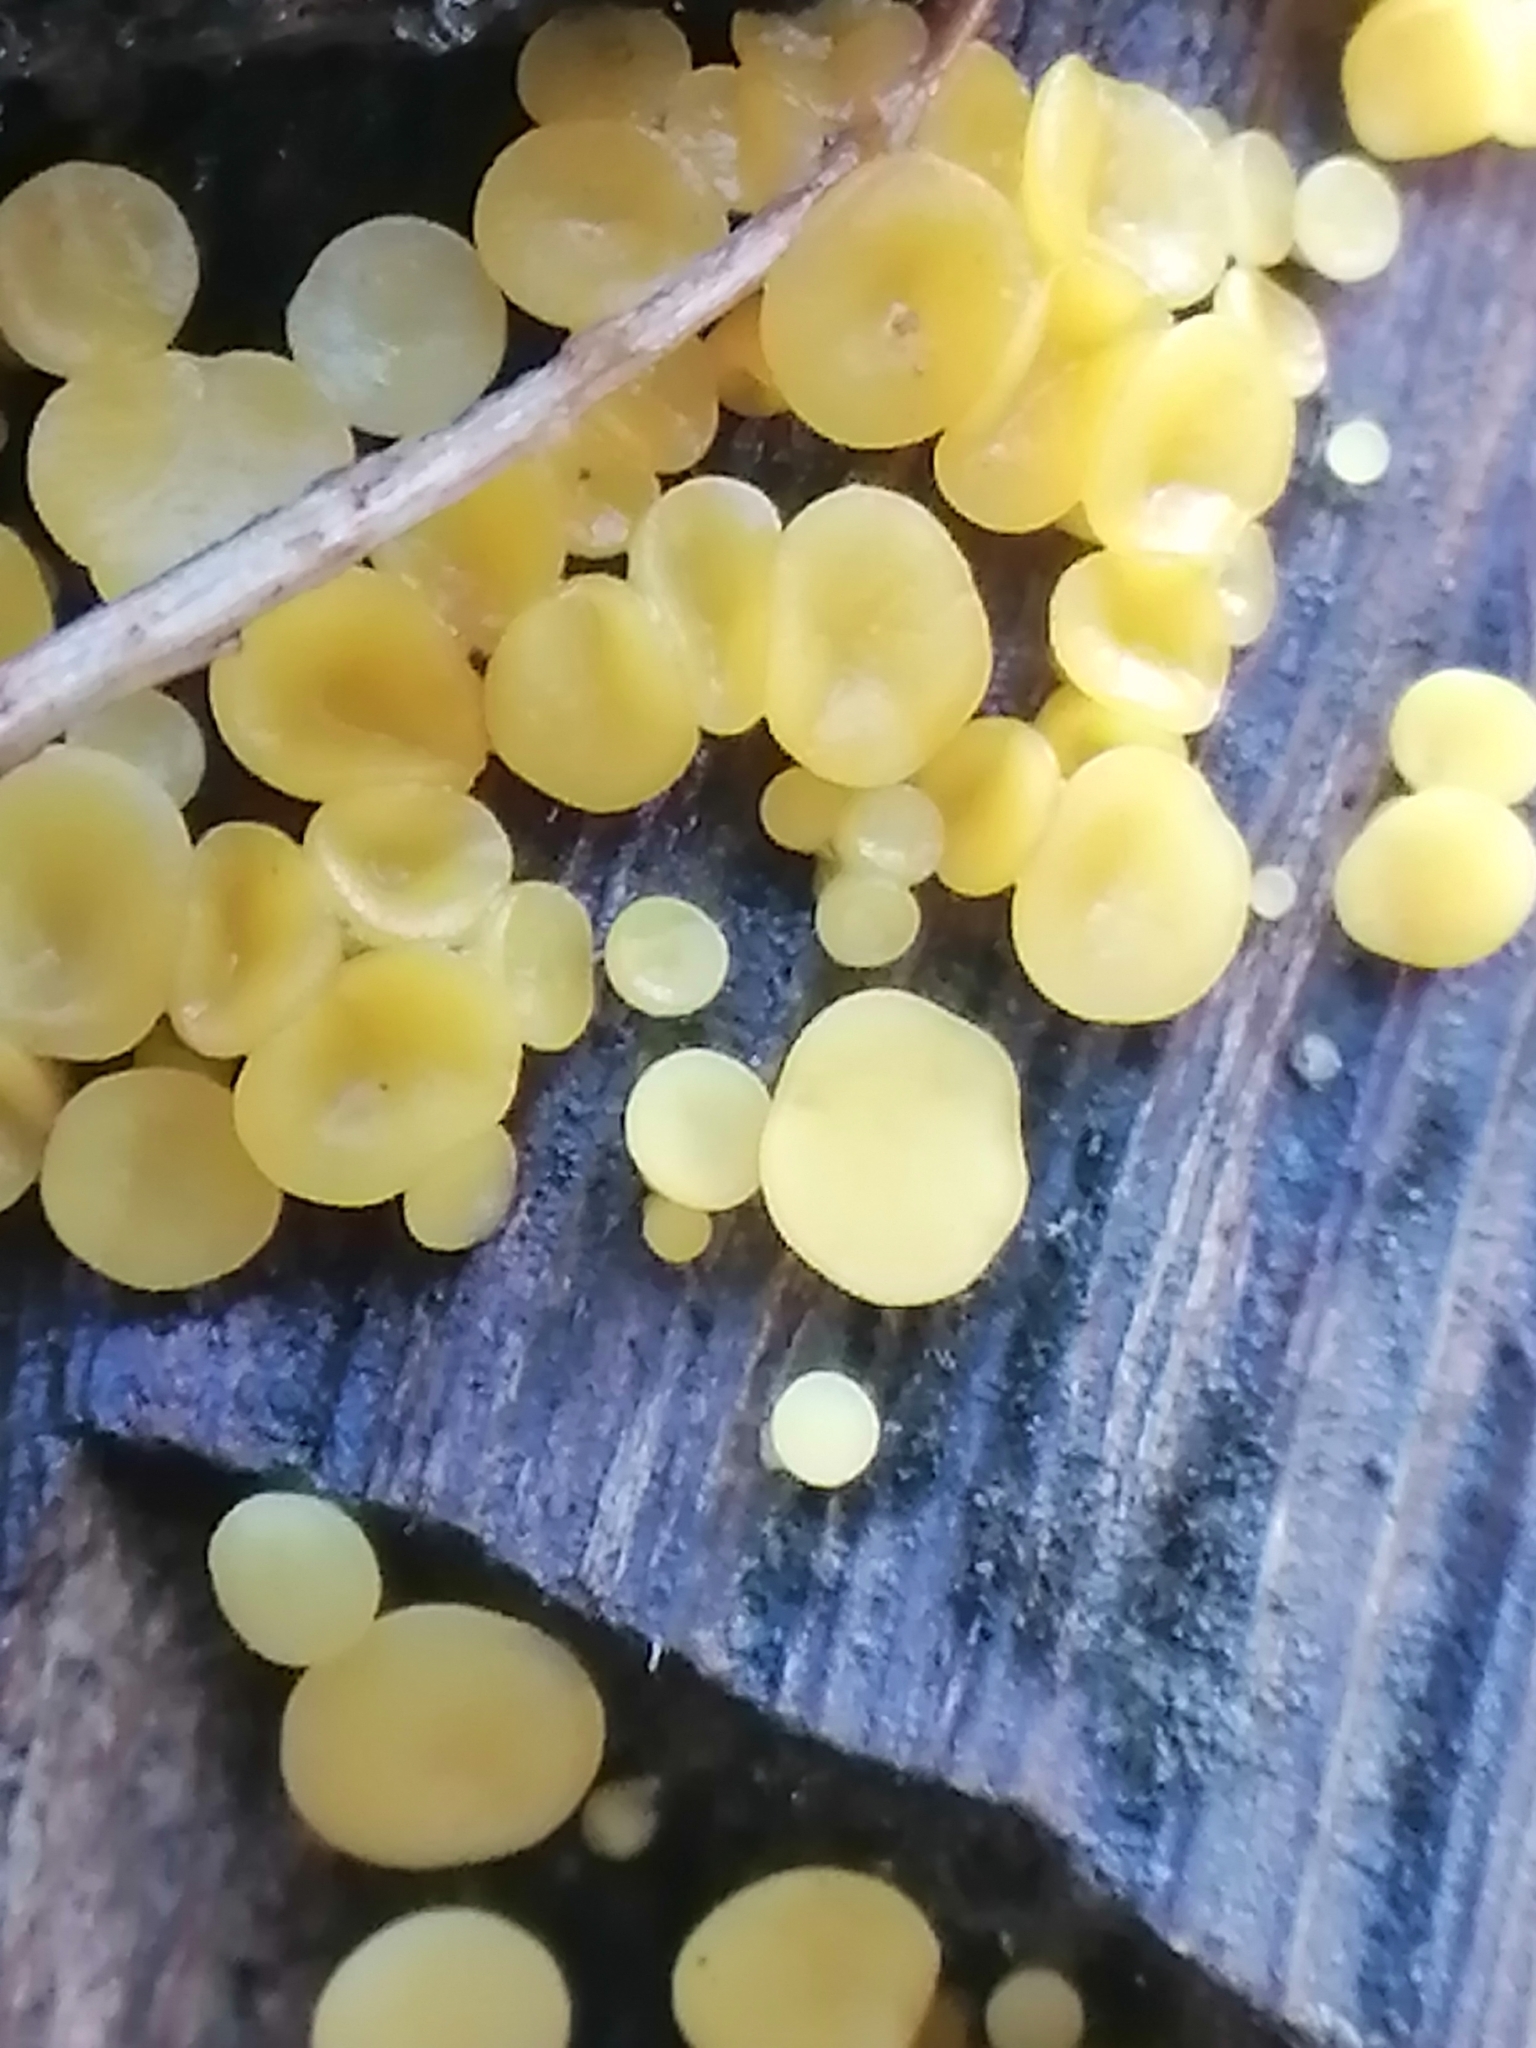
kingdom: Fungi
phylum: Ascomycota
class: Leotiomycetes
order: Helotiales
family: Pezizellaceae
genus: Calycina
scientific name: Calycina citrina
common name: Yellow fairy cups
